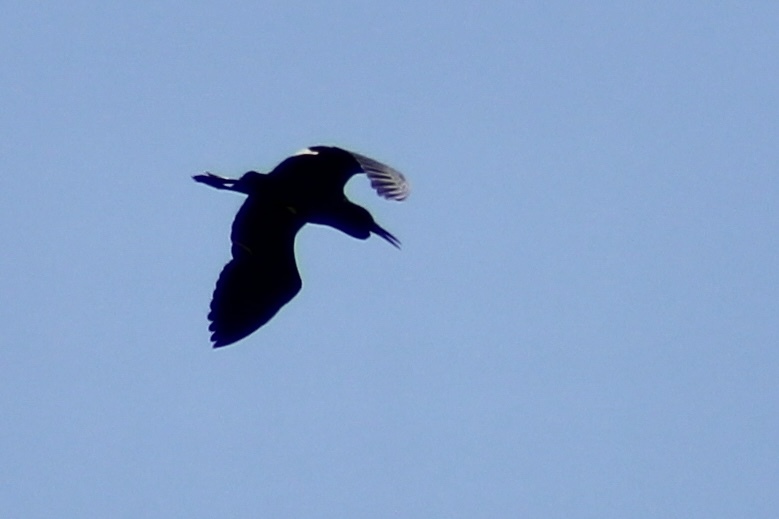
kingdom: Animalia
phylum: Chordata
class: Aves
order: Pelecaniformes
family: Ardeidae
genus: Egretta
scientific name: Egretta caerulea
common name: Little blue heron
